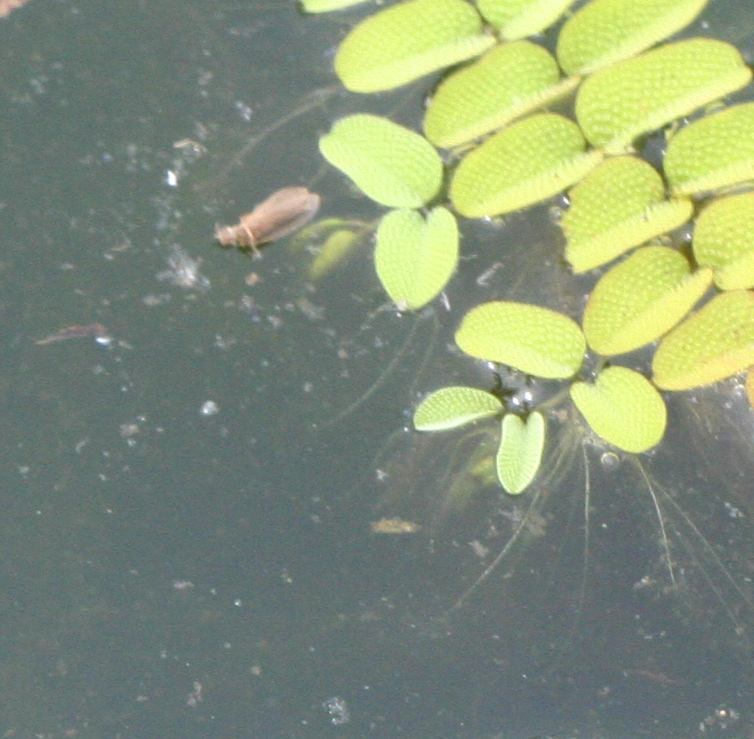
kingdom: Plantae
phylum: Tracheophyta
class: Polypodiopsida
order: Salviniales
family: Salviniaceae
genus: Salvinia
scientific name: Salvinia natans
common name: Floating fern
